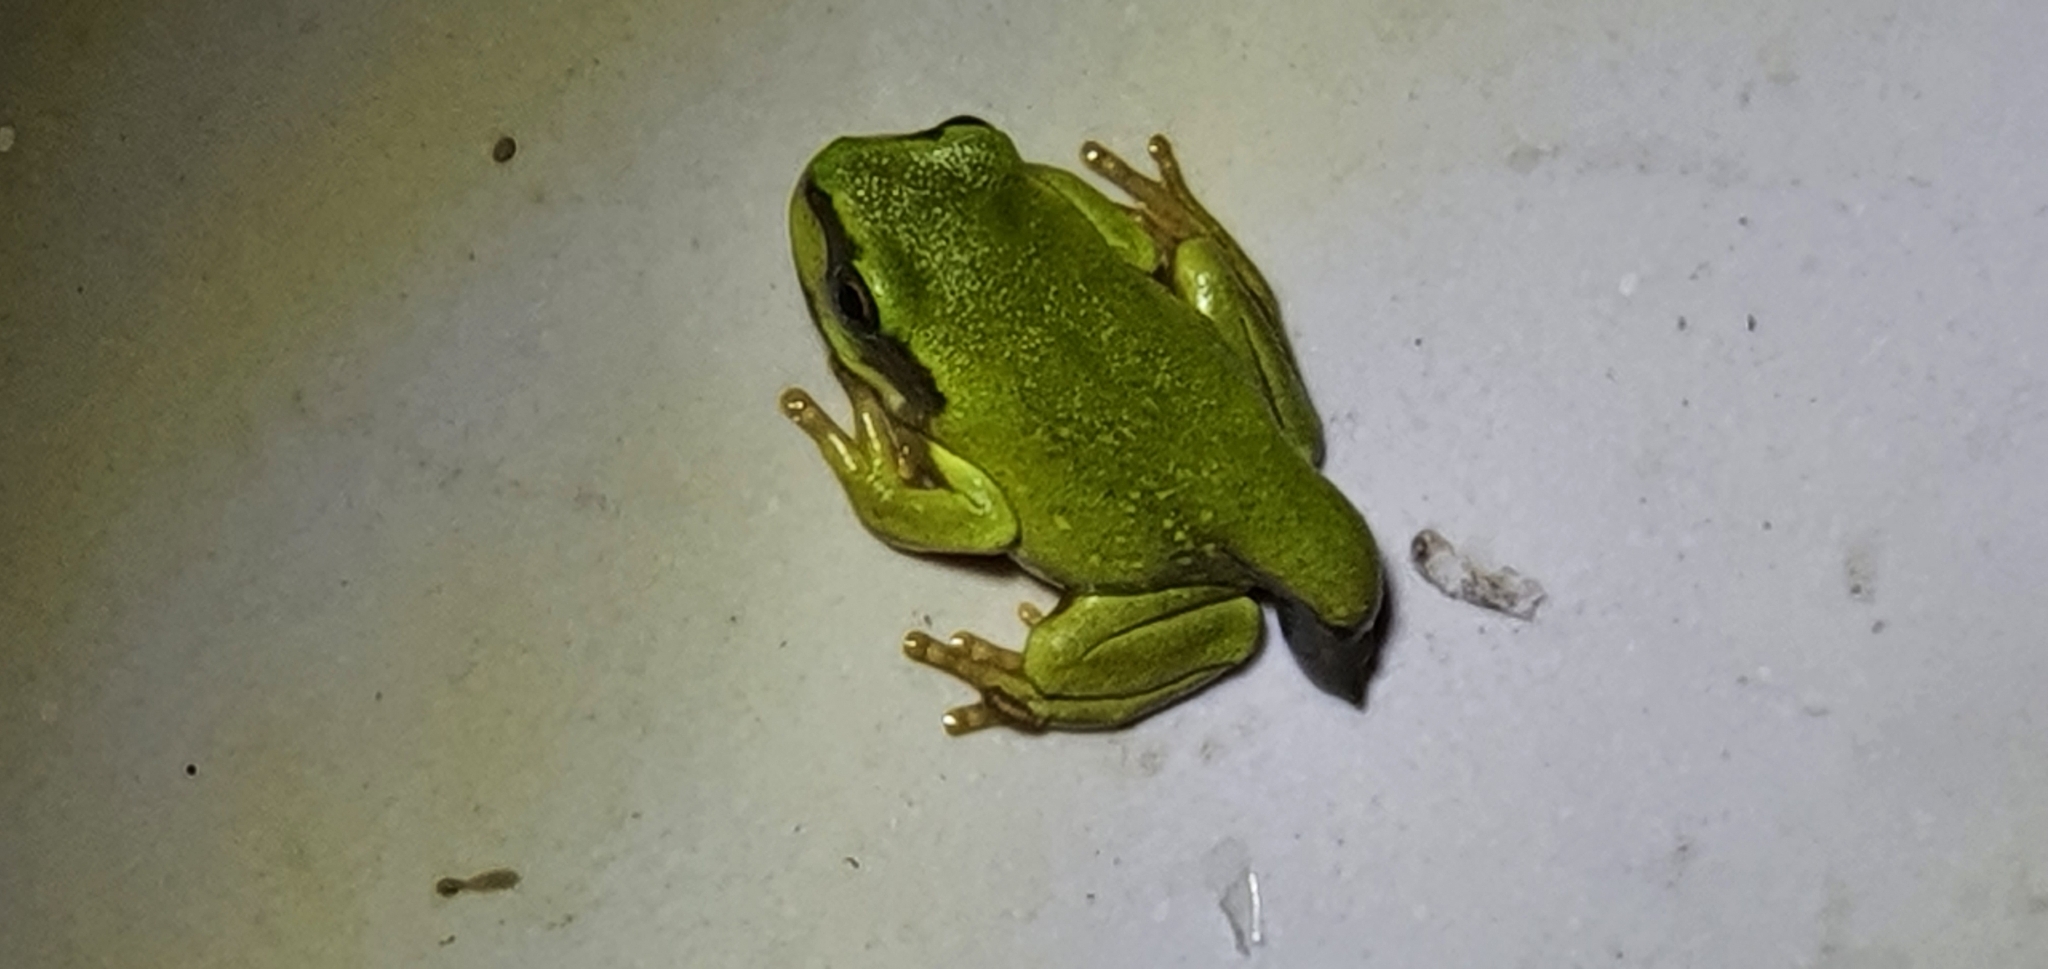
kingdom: Animalia
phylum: Chordata
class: Amphibia
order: Anura
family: Pelodryadidae
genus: Ranoidea
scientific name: Ranoidea caerulea
